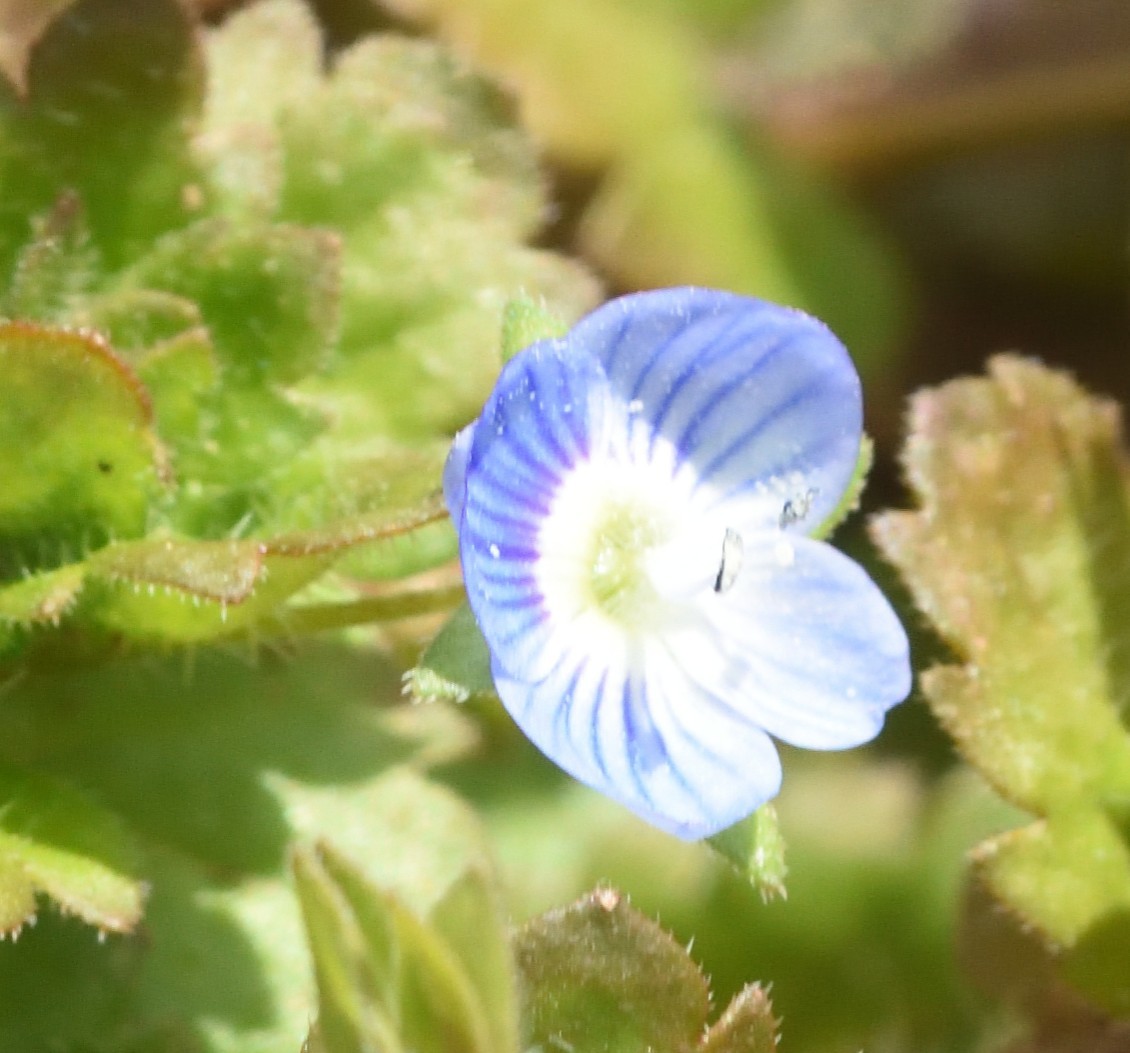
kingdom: Plantae
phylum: Tracheophyta
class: Magnoliopsida
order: Lamiales
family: Plantaginaceae
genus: Veronica
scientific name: Veronica persica
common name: Common field-speedwell
